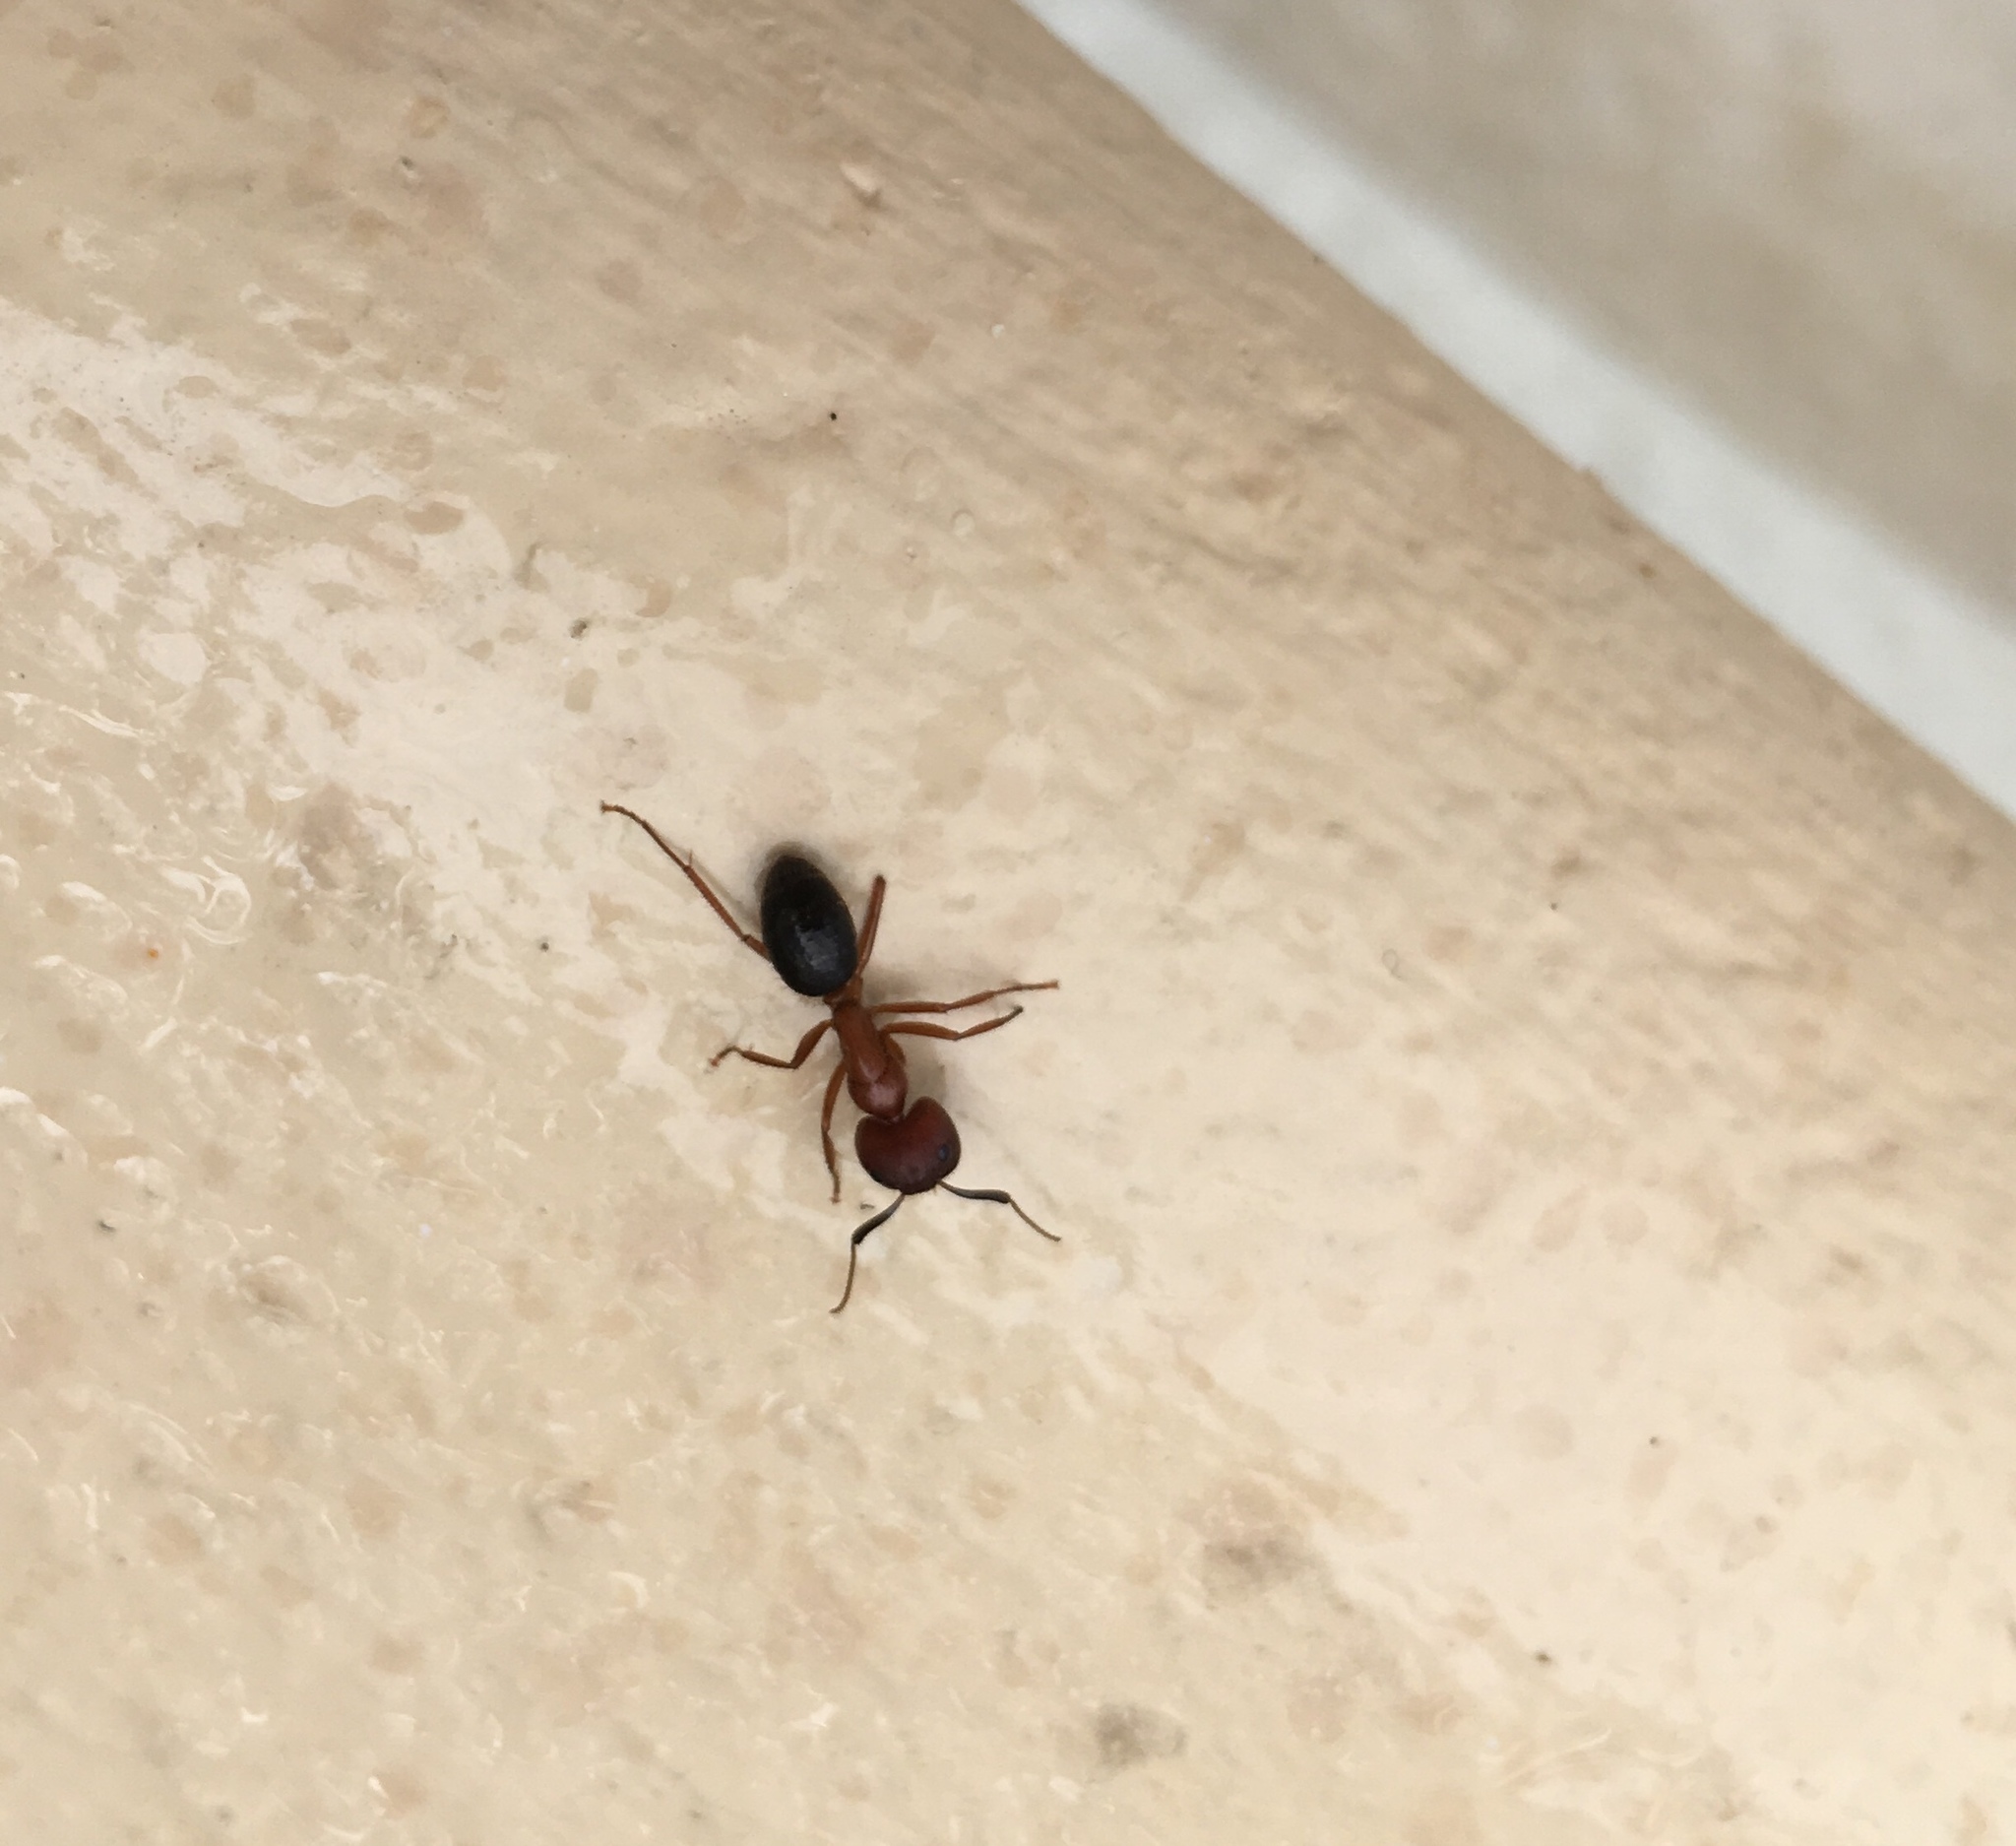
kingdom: Animalia
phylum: Arthropoda
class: Insecta
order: Hymenoptera
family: Formicidae
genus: Camponotus
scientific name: Camponotus floridanus
